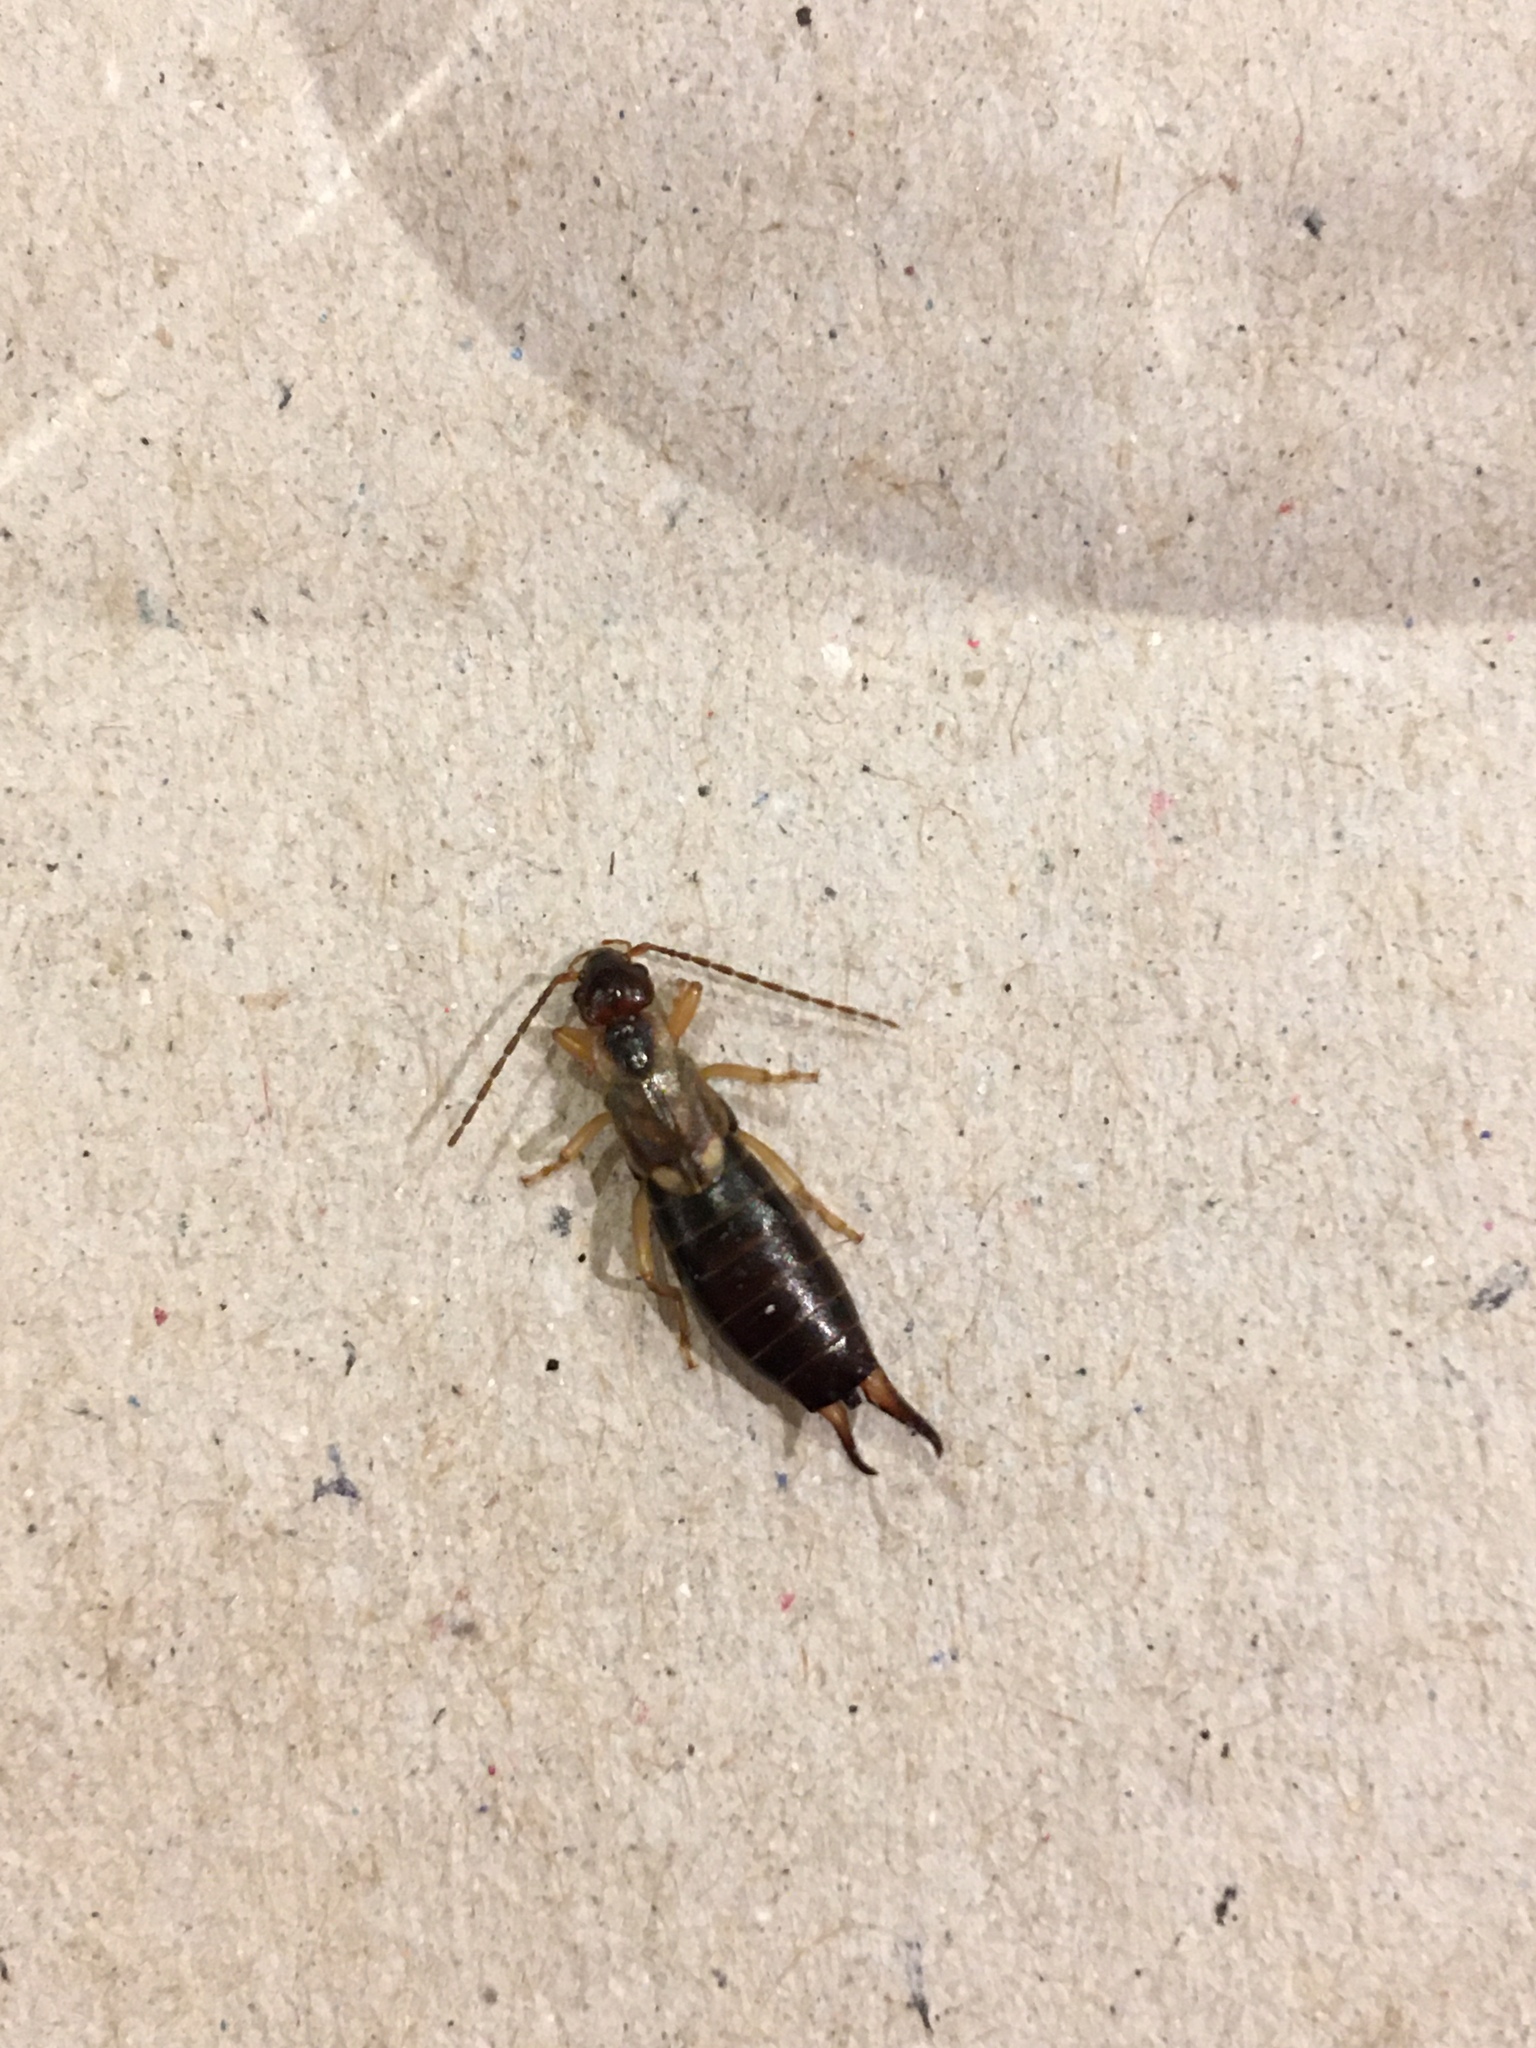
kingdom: Animalia
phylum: Arthropoda
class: Insecta
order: Dermaptera
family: Forficulidae
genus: Forficula
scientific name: Forficula
